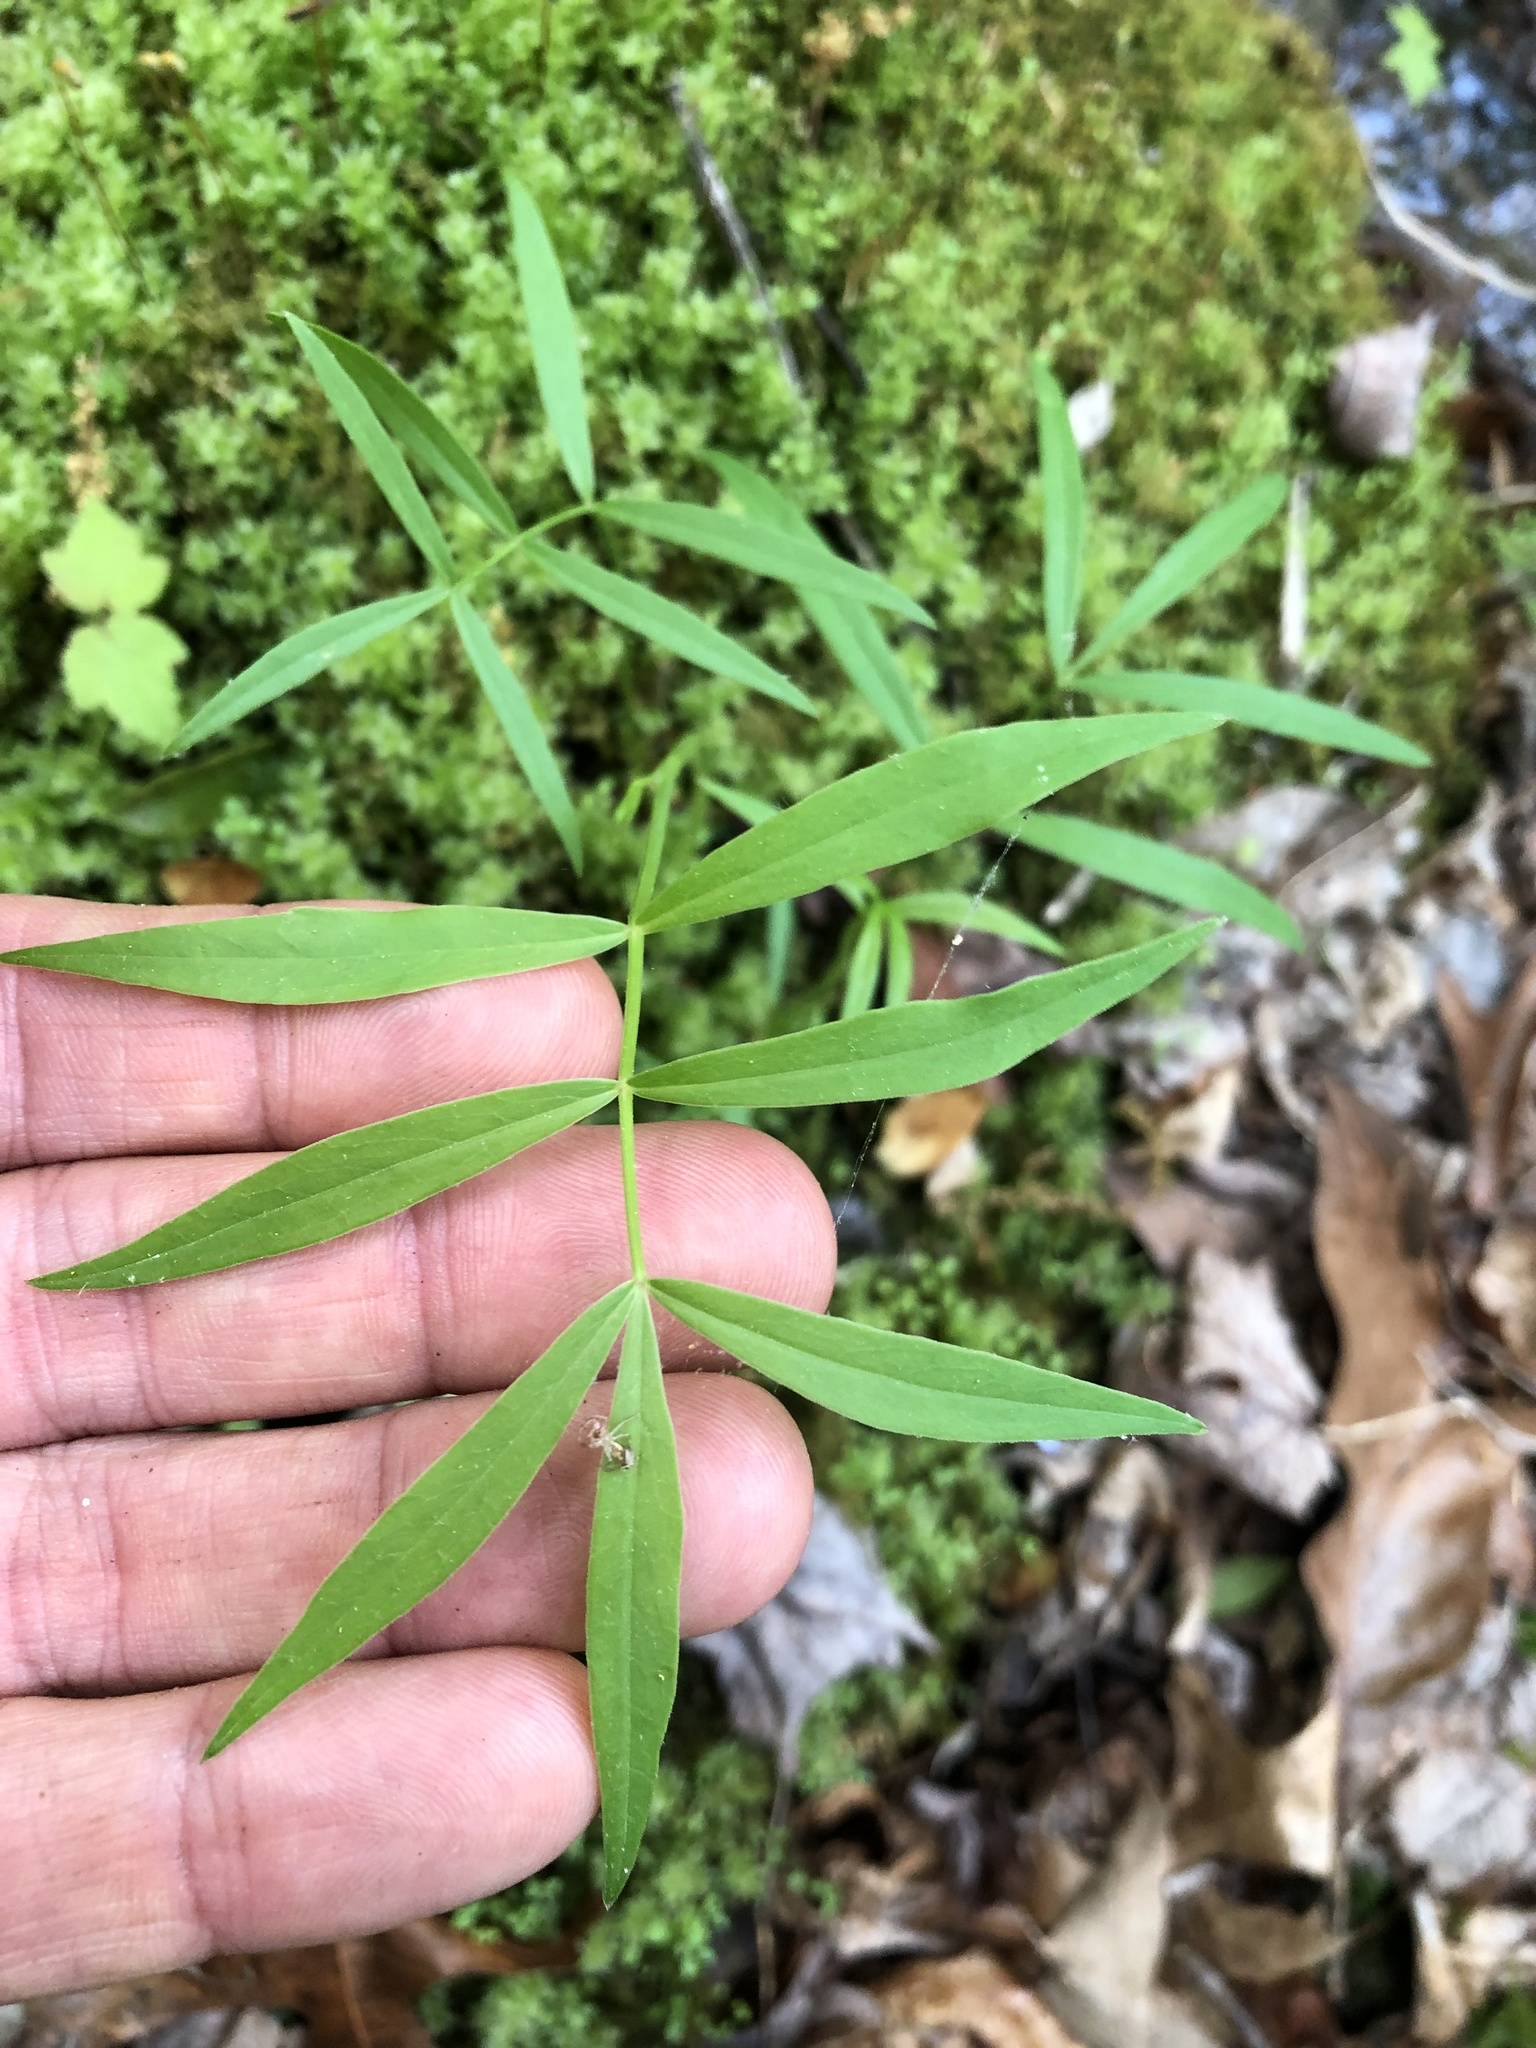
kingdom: Plantae
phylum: Tracheophyta
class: Magnoliopsida
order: Apiales
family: Apiaceae
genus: Oxypolis
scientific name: Oxypolis rigidior
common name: Cowbane
